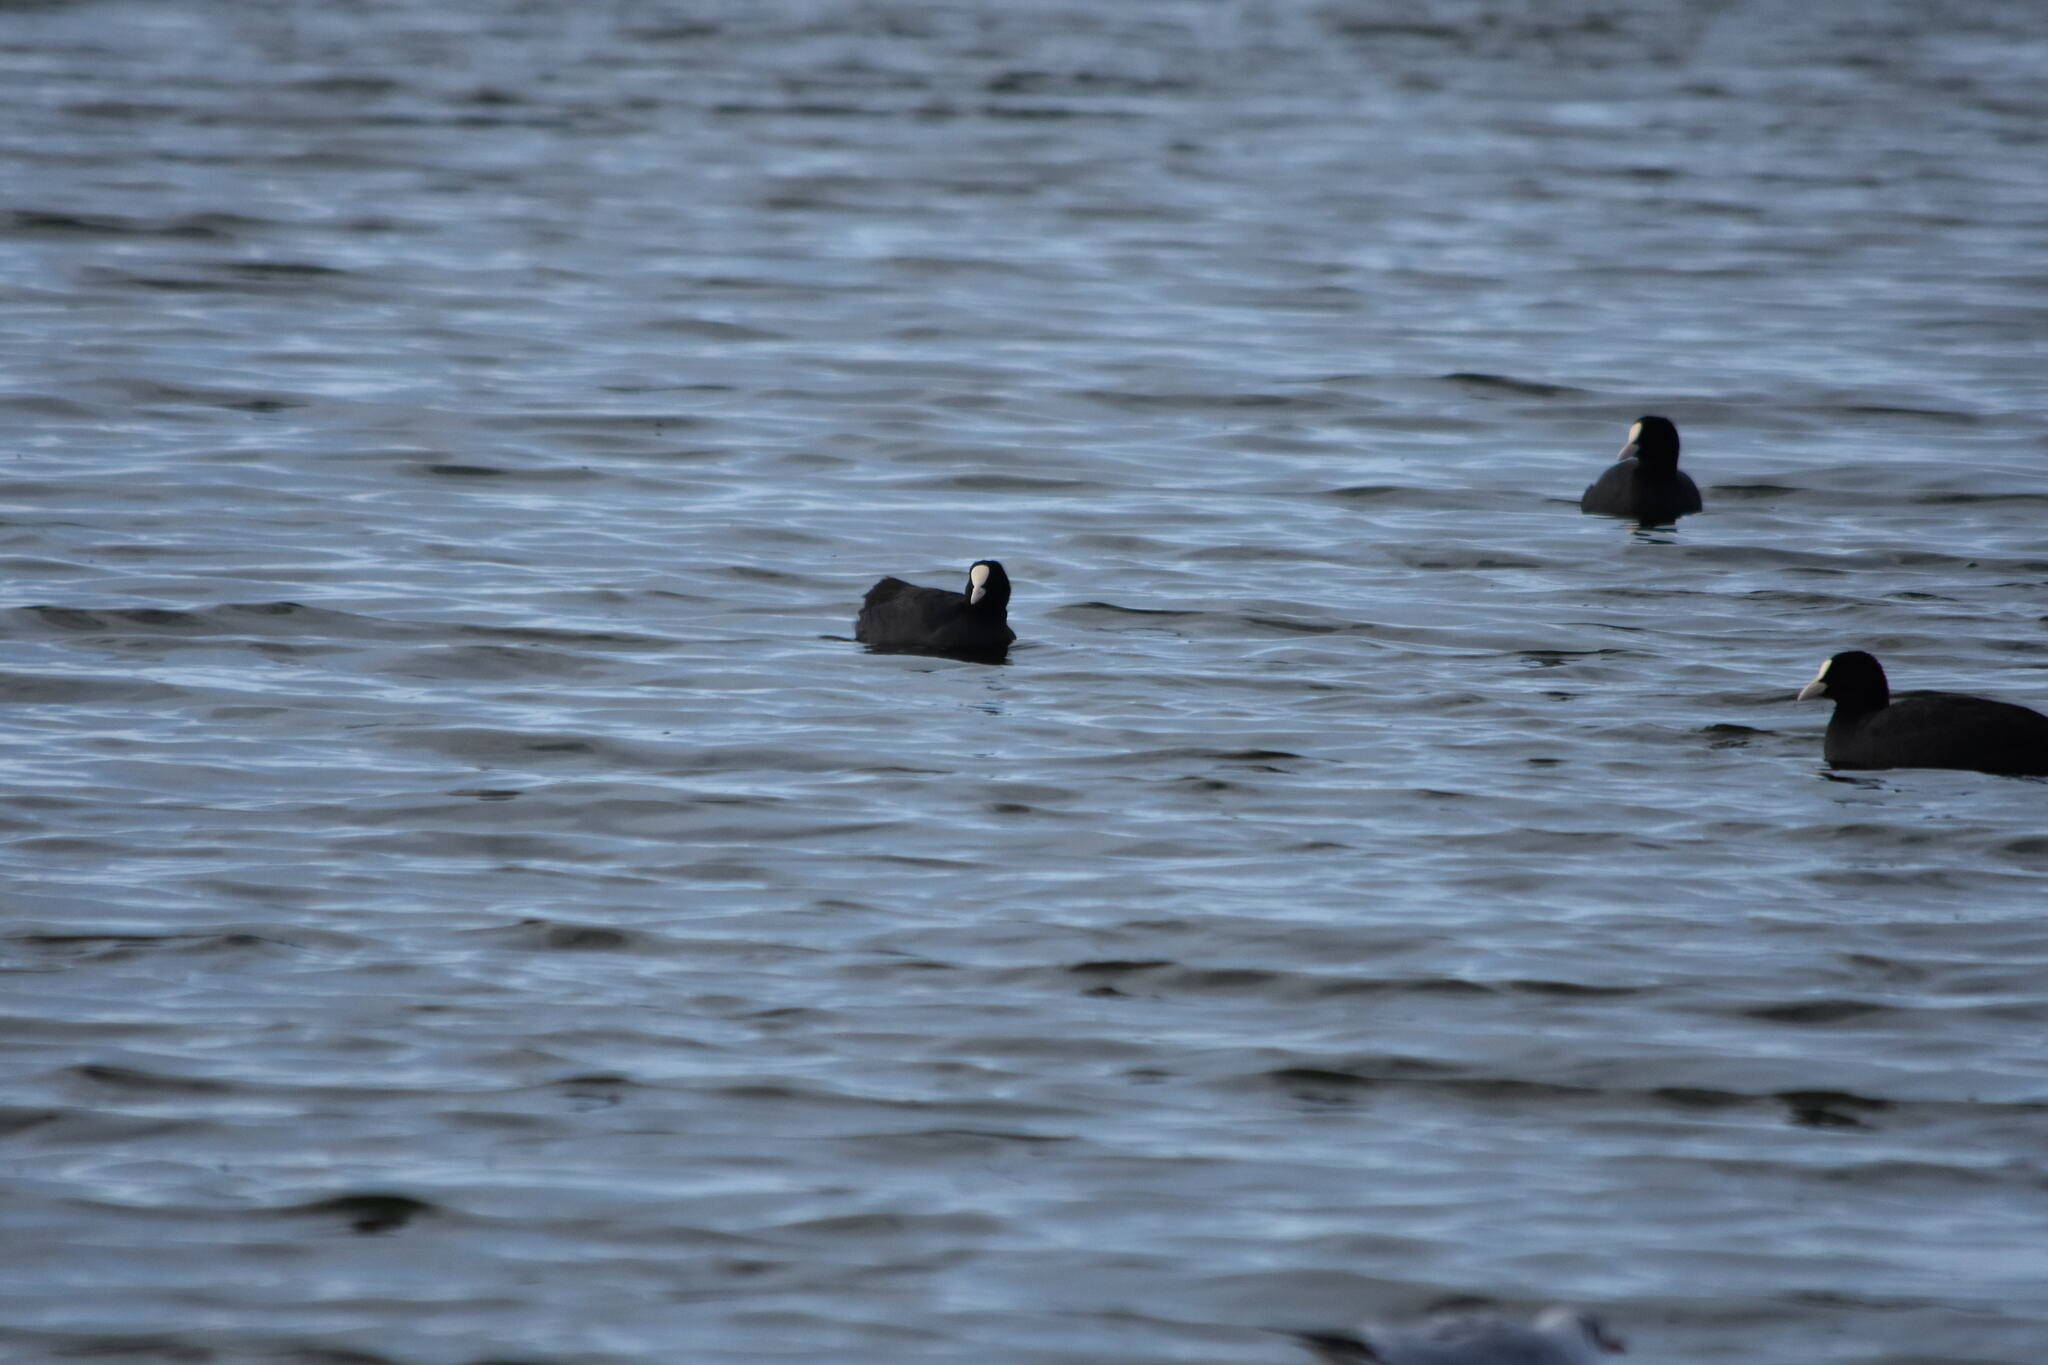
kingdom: Animalia
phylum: Chordata
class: Aves
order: Gruiformes
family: Rallidae
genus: Fulica
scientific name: Fulica atra
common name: Eurasian coot
